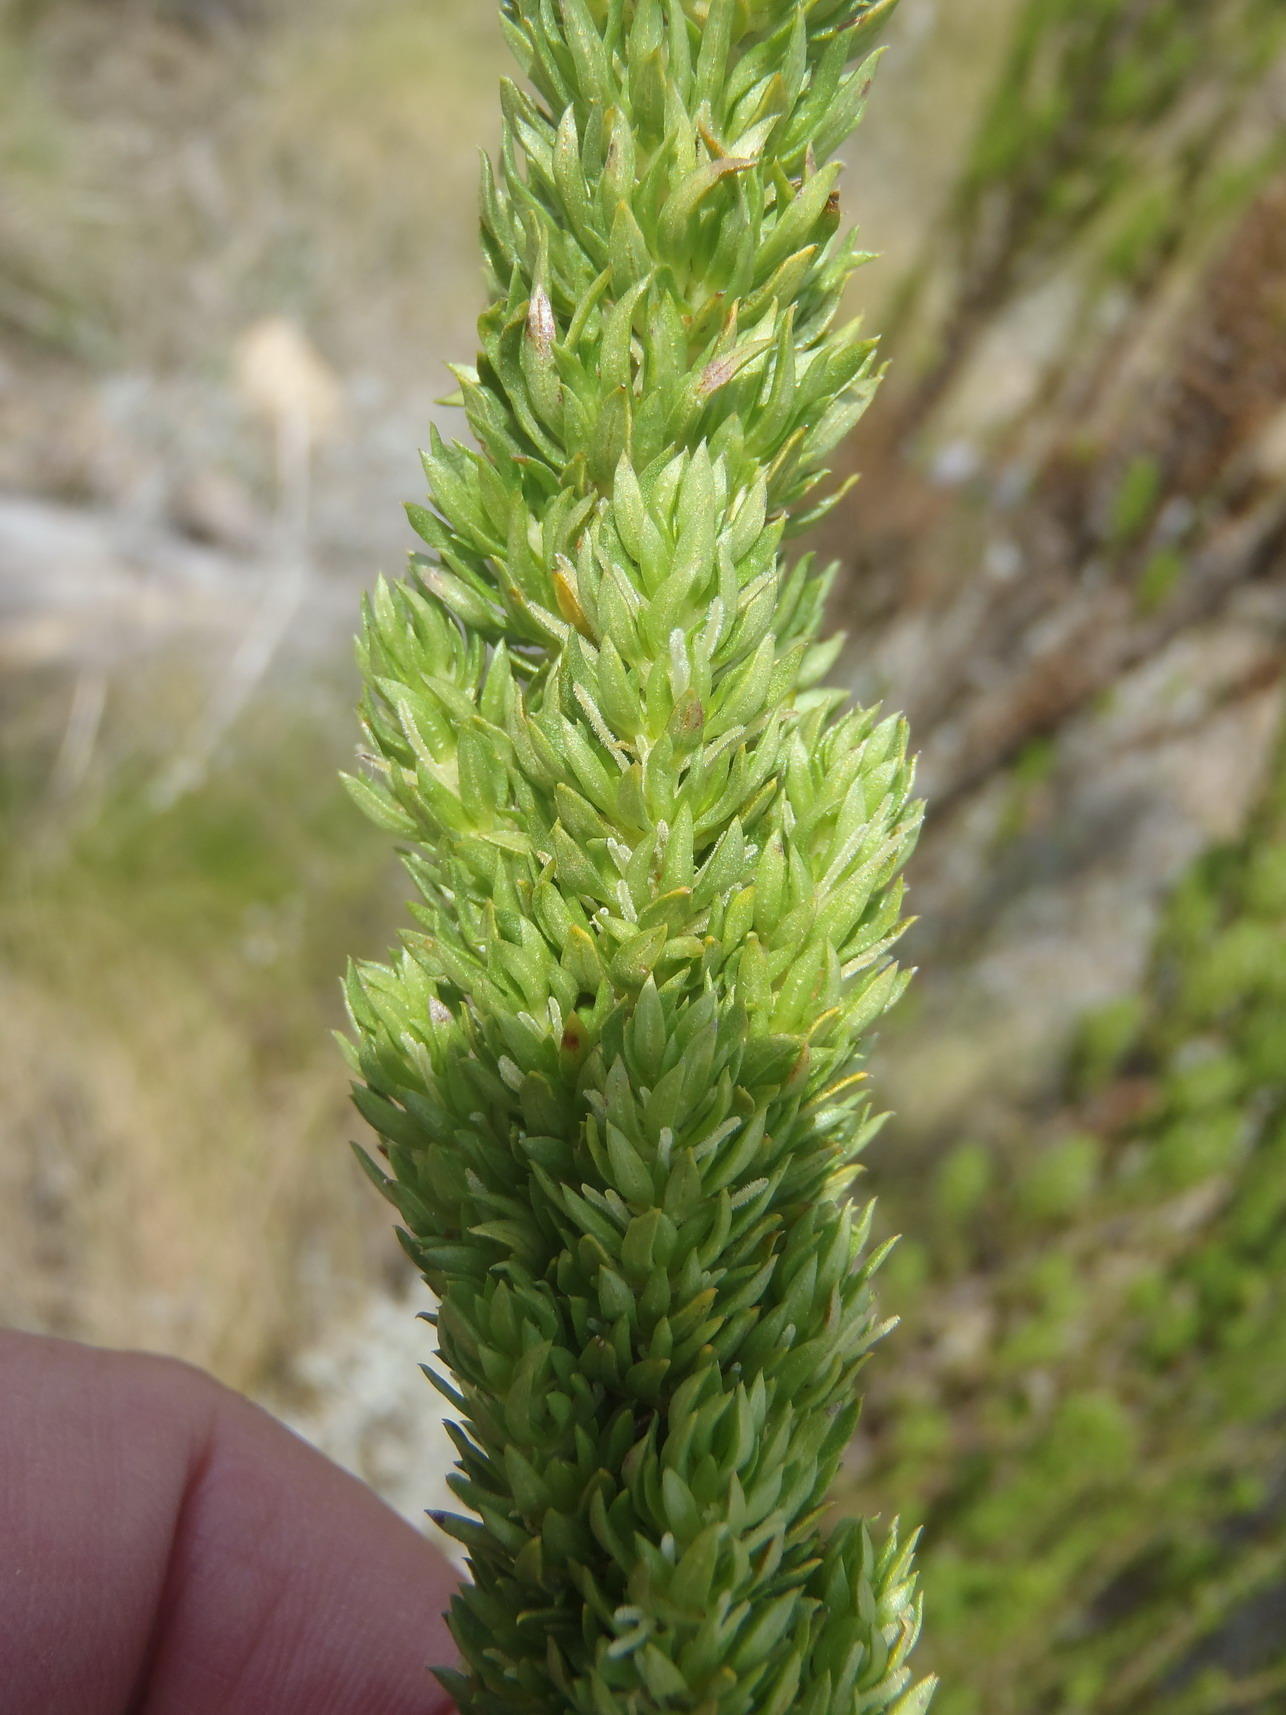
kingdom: Plantae
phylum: Tracheophyta
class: Magnoliopsida
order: Gentianales
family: Rubiaceae
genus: Anthospermum
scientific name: Anthospermum aethiopicum
